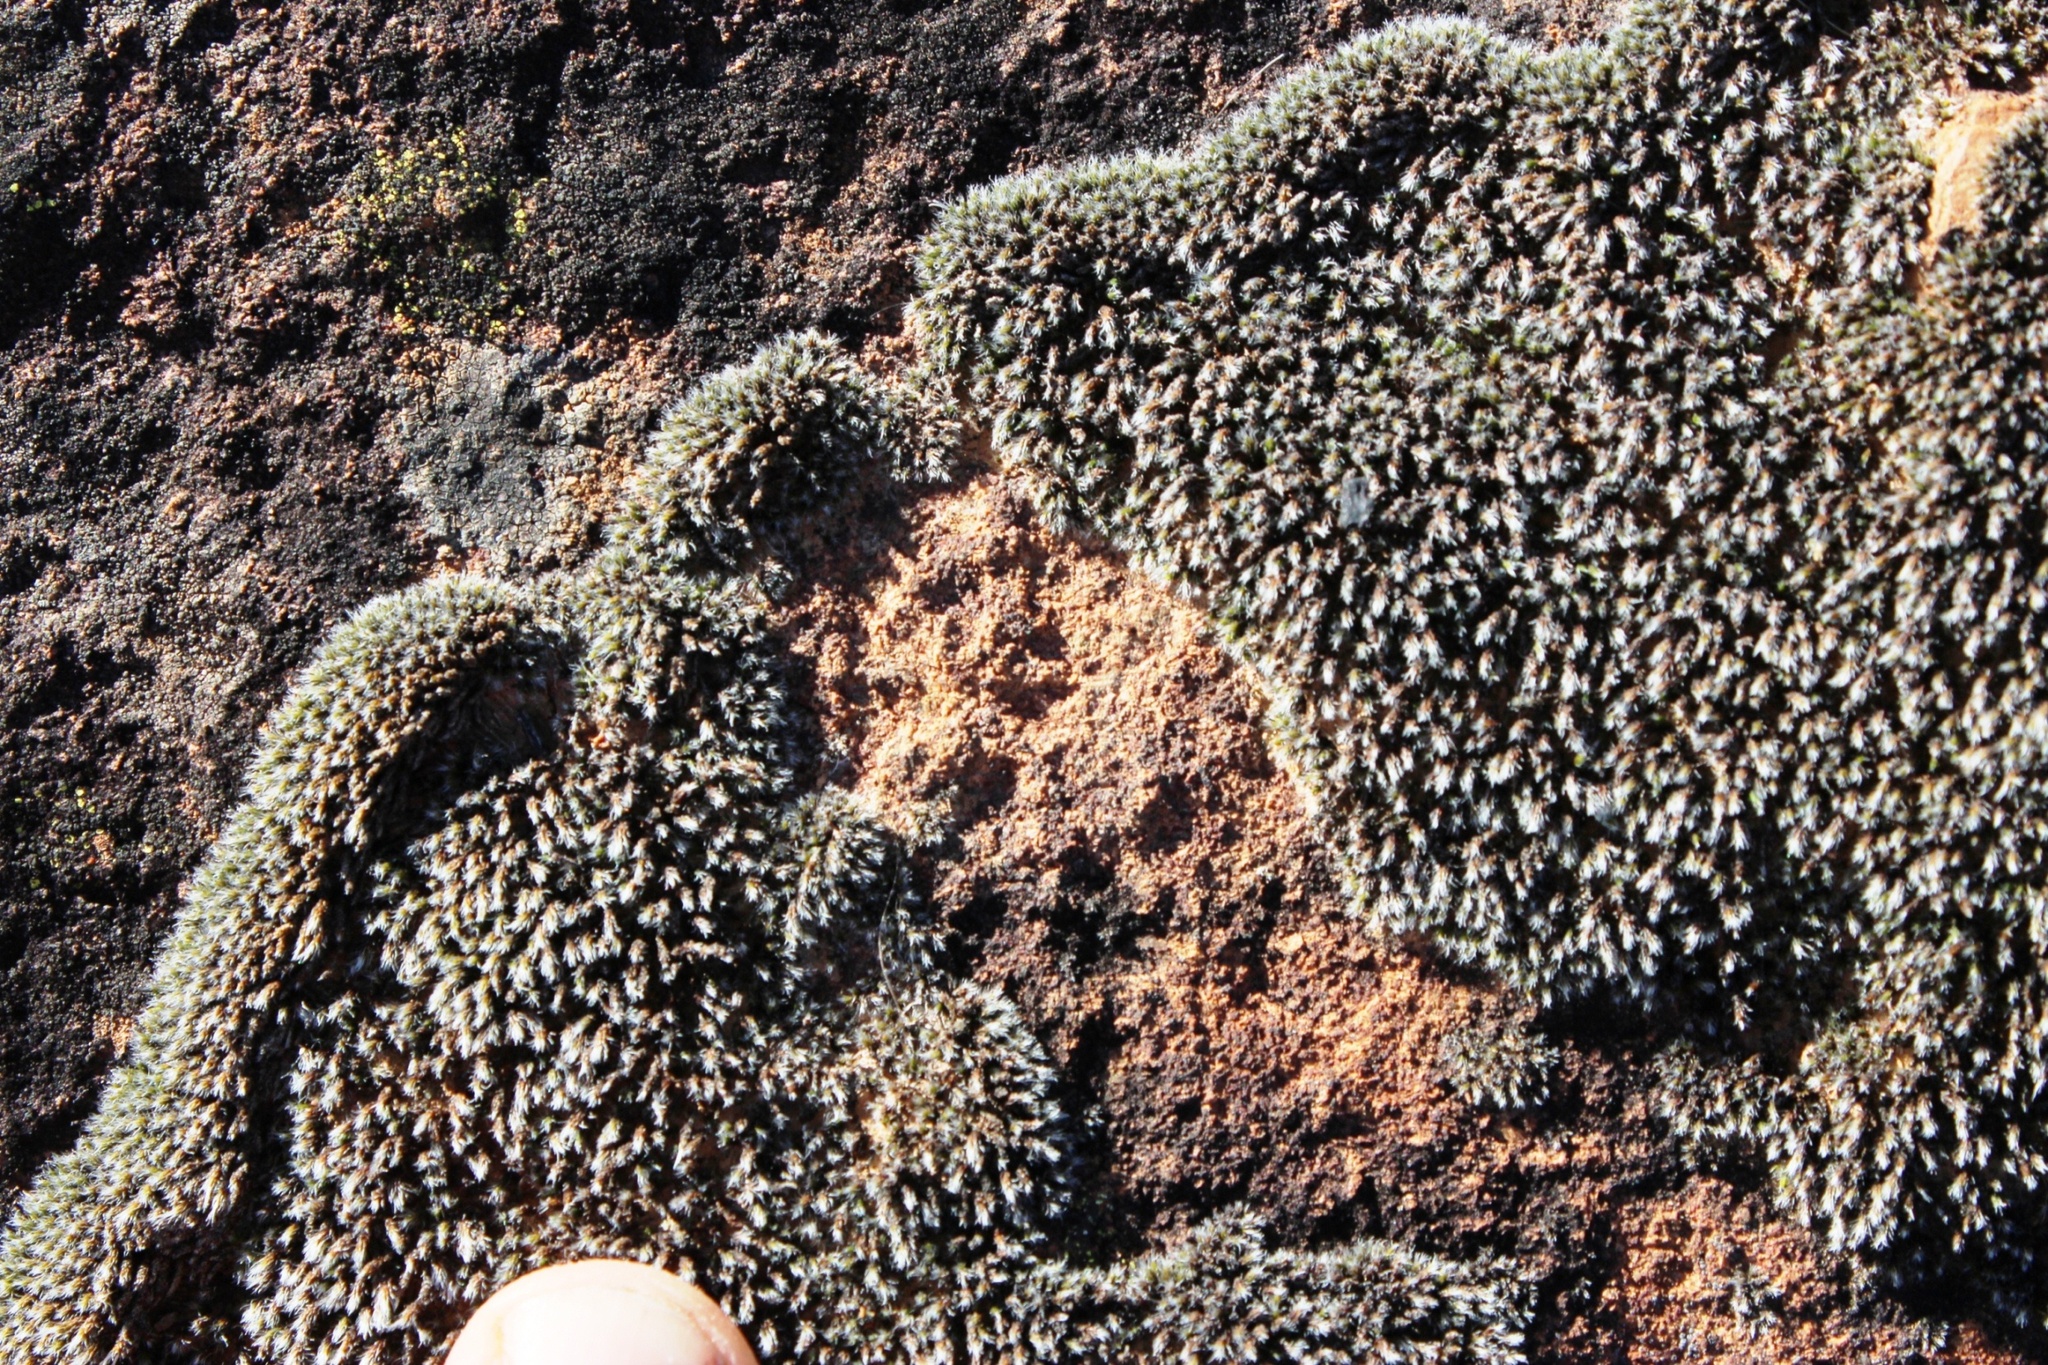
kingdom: Plantae
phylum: Bryophyta
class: Bryopsida
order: Grimmiales
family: Grimmiaceae
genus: Grimmia
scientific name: Grimmia laevigata
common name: Hoary grimmia
